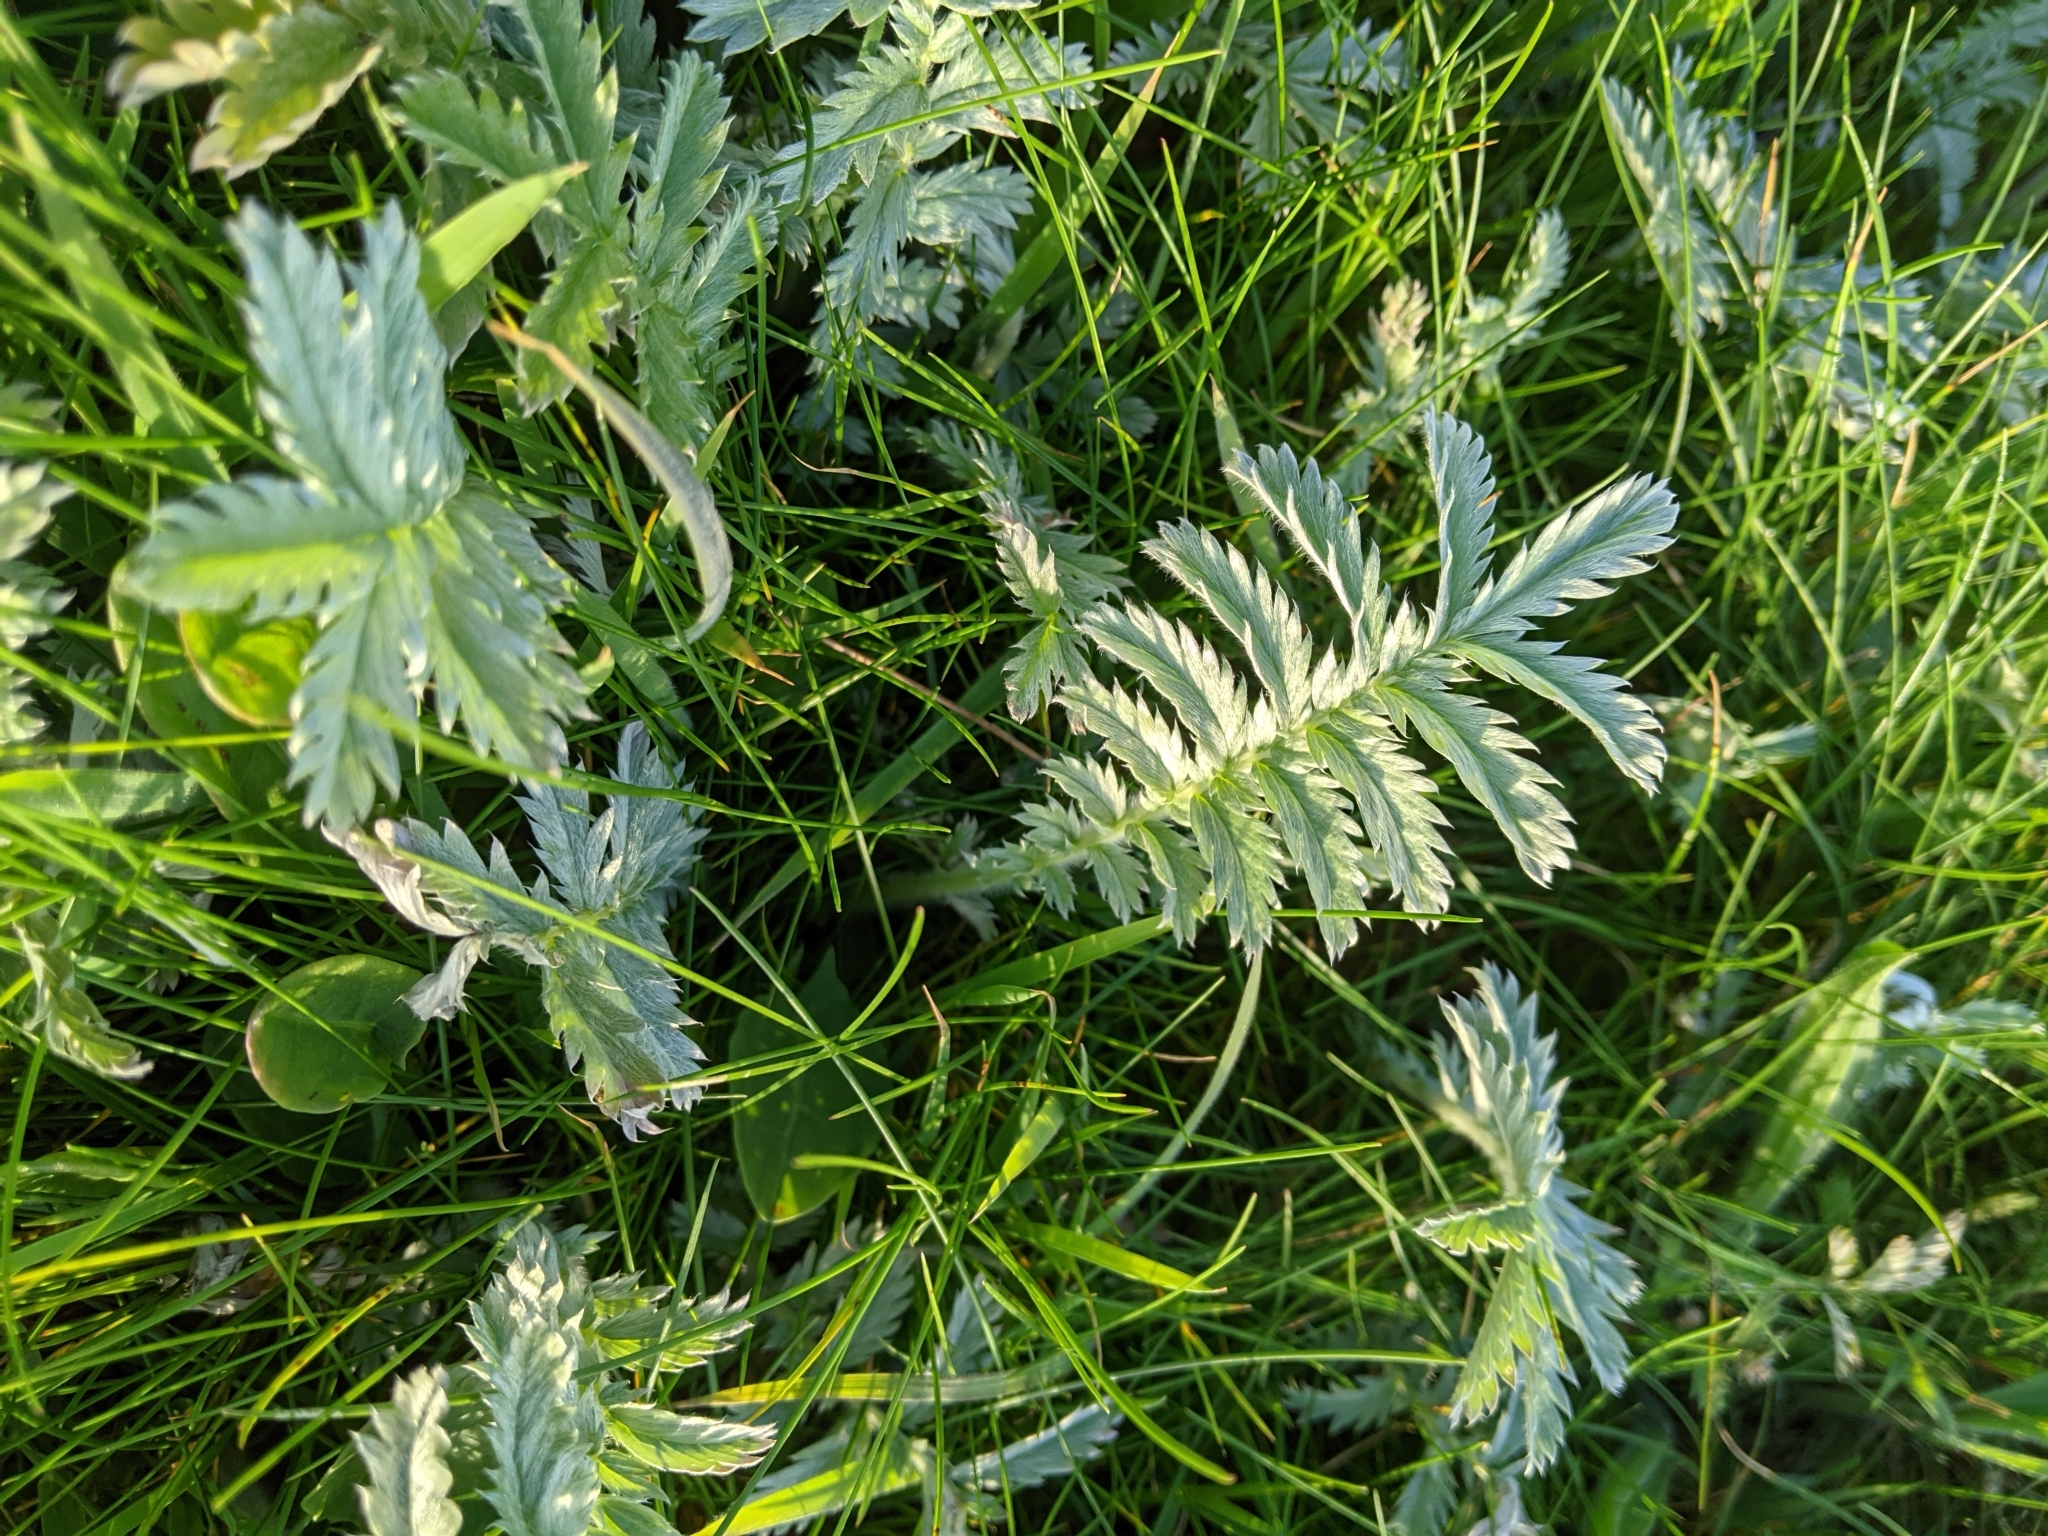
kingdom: Plantae
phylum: Tracheophyta
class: Magnoliopsida
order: Rosales
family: Rosaceae
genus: Argentina
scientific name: Argentina anserina
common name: Common silverweed
